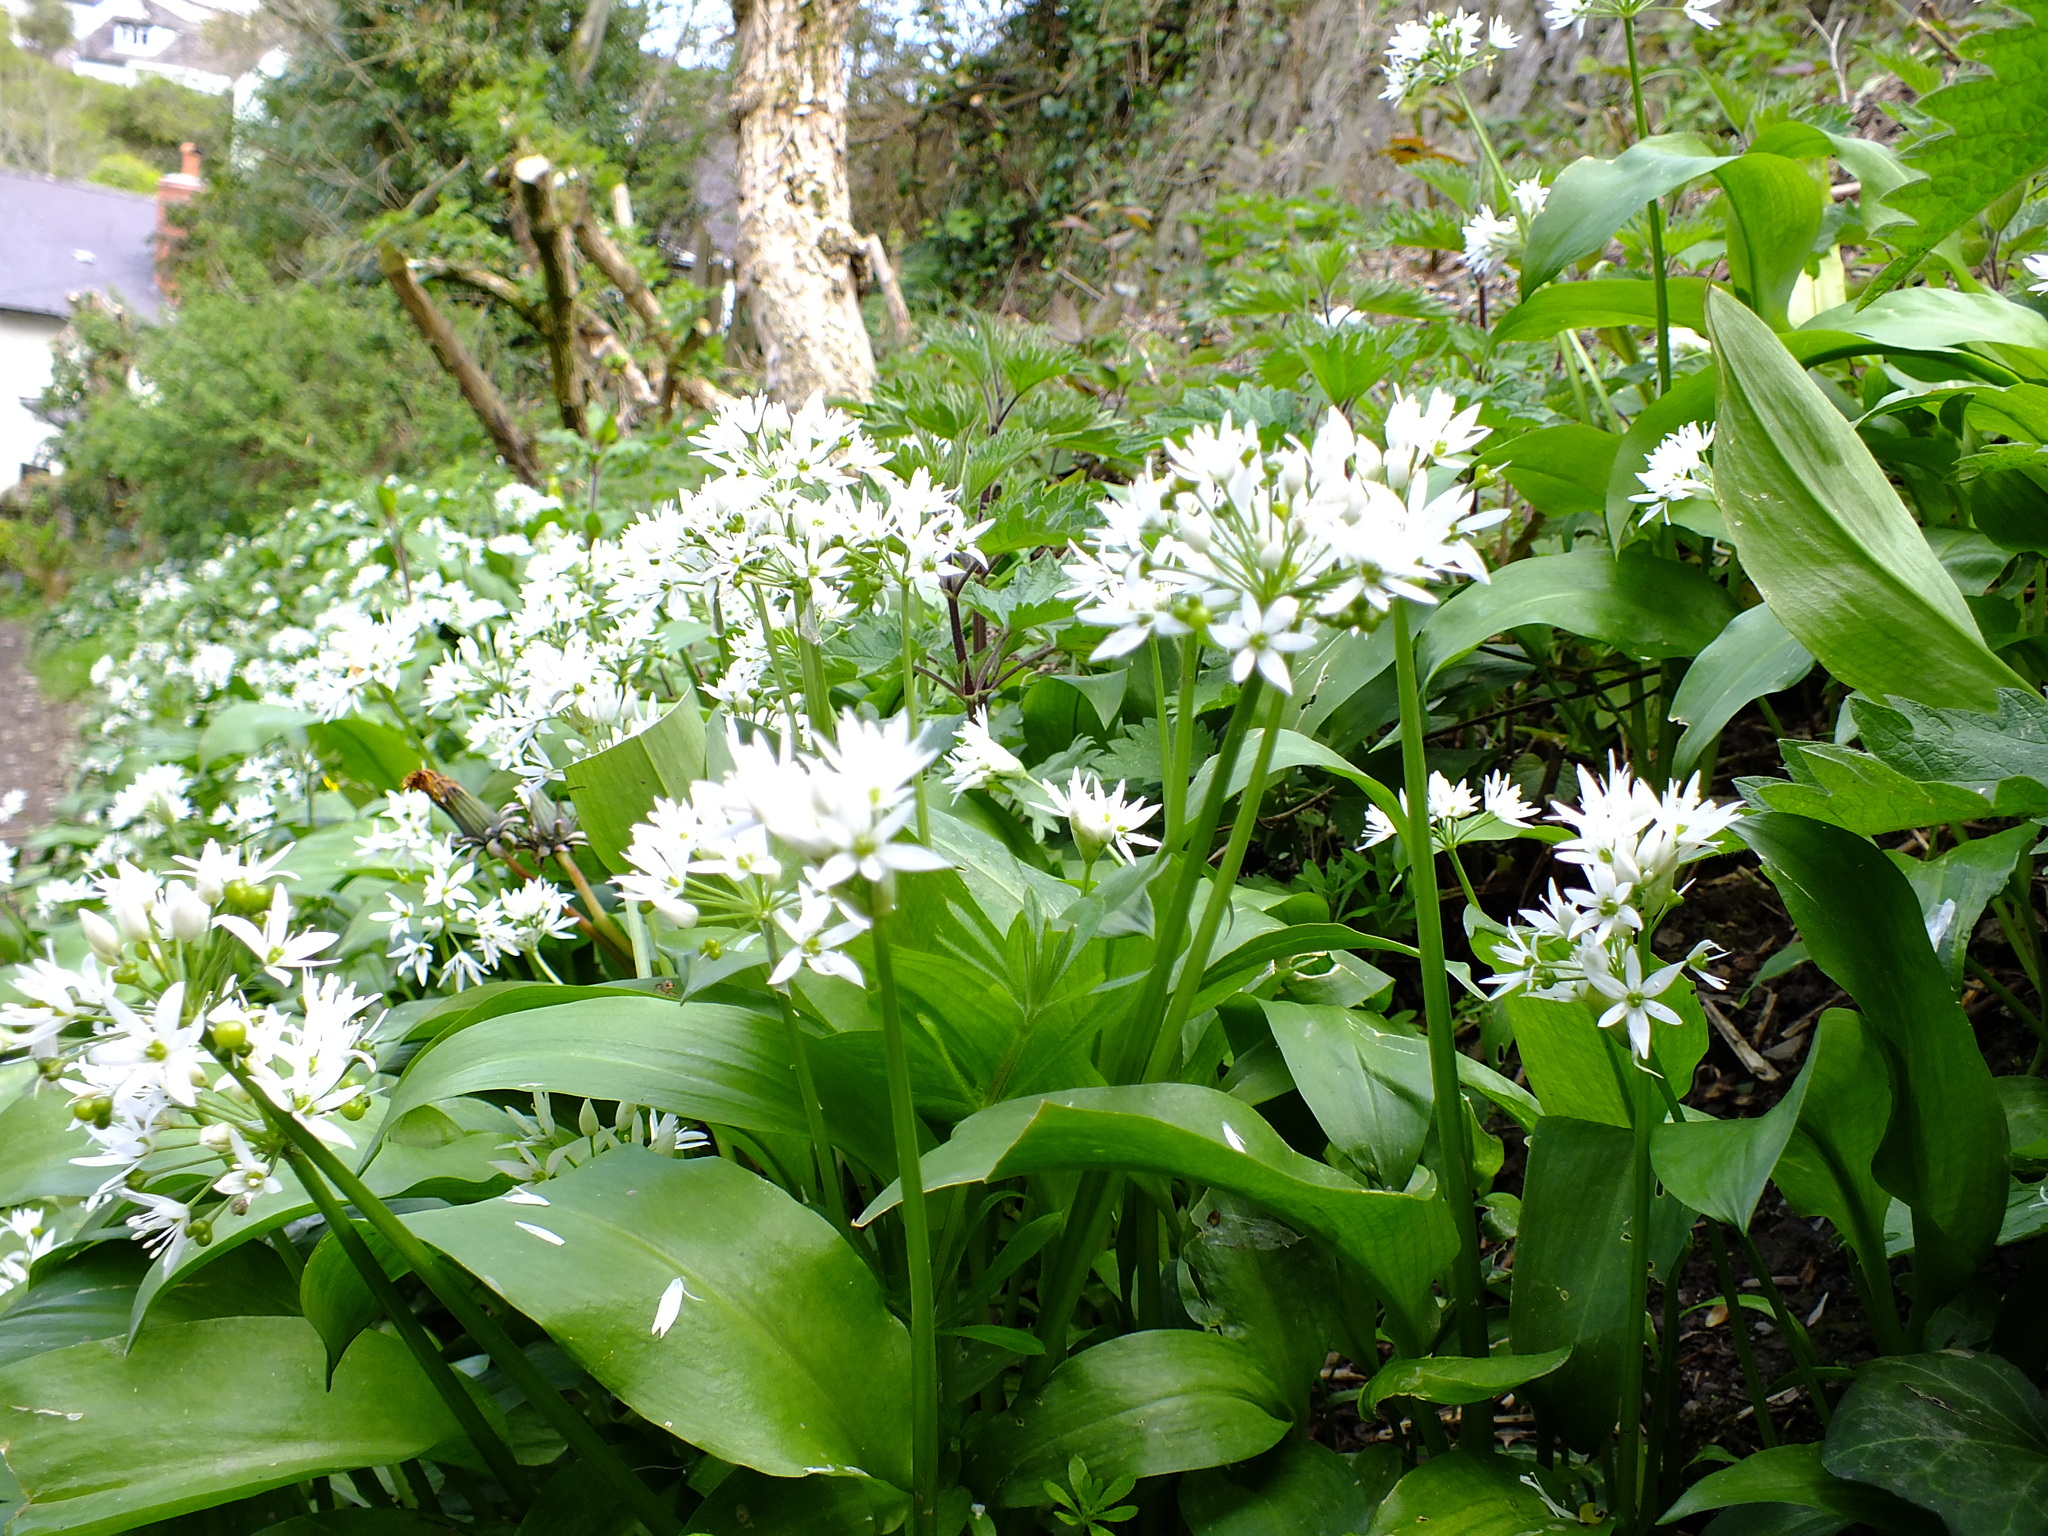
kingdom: Plantae
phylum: Tracheophyta
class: Liliopsida
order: Asparagales
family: Amaryllidaceae
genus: Allium
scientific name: Allium ursinum
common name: Ramsons
